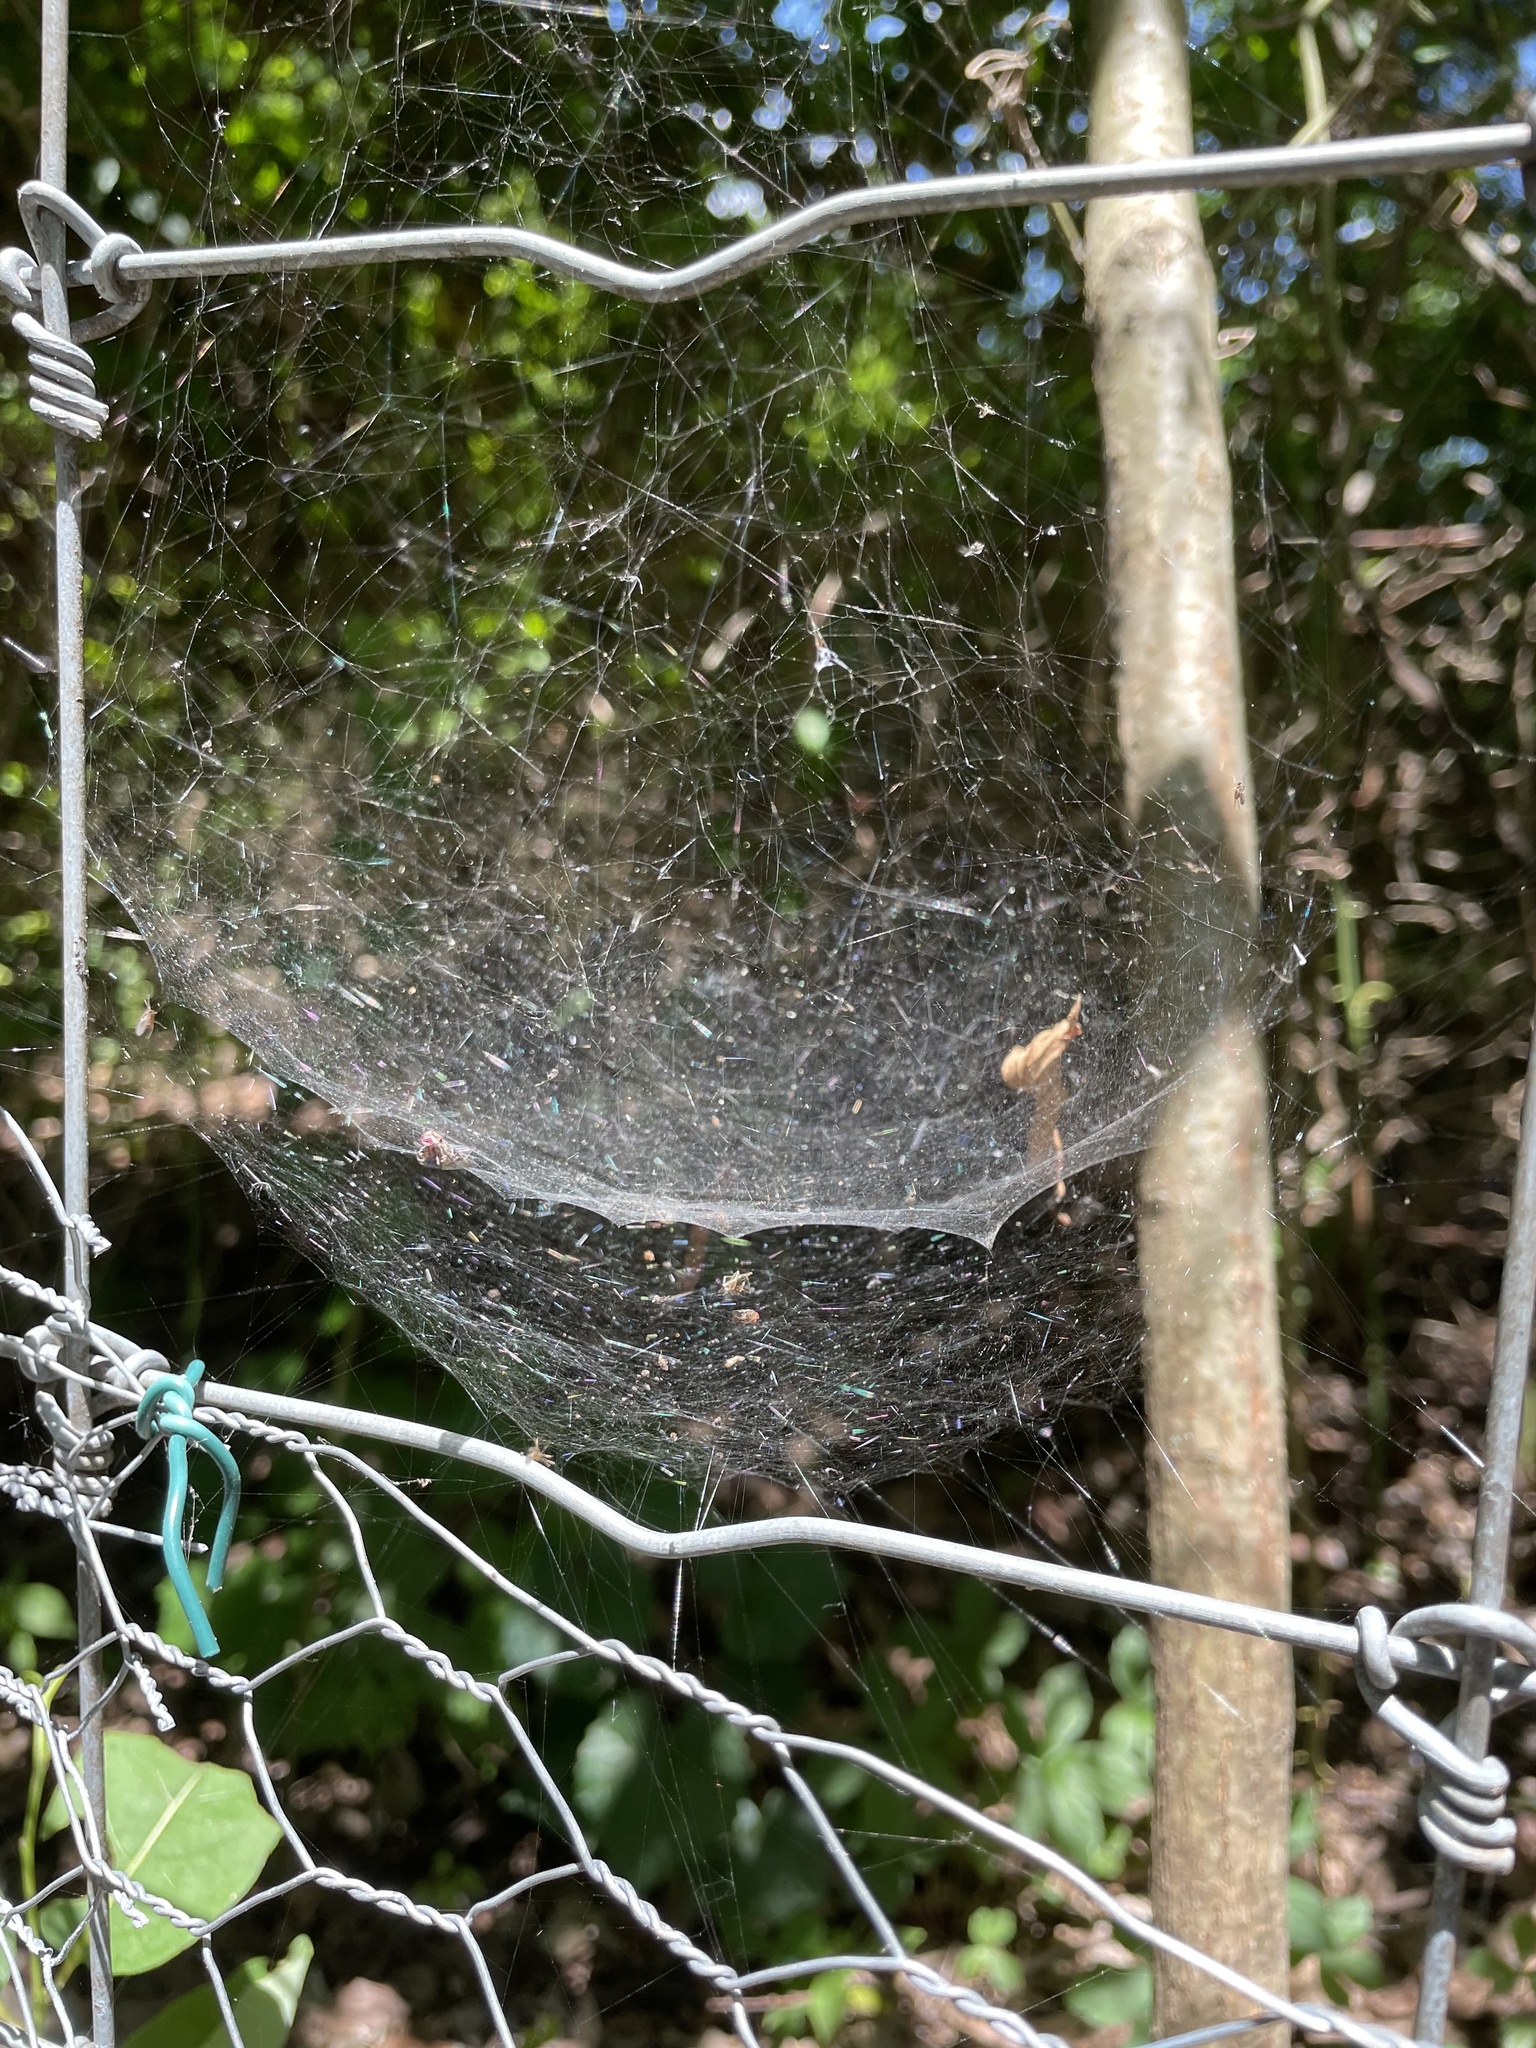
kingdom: Animalia
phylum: Arthropoda
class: Arachnida
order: Araneae
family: Linyphiidae
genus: Frontinella
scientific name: Frontinella pyramitela
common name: Bowl-and-doily spider
